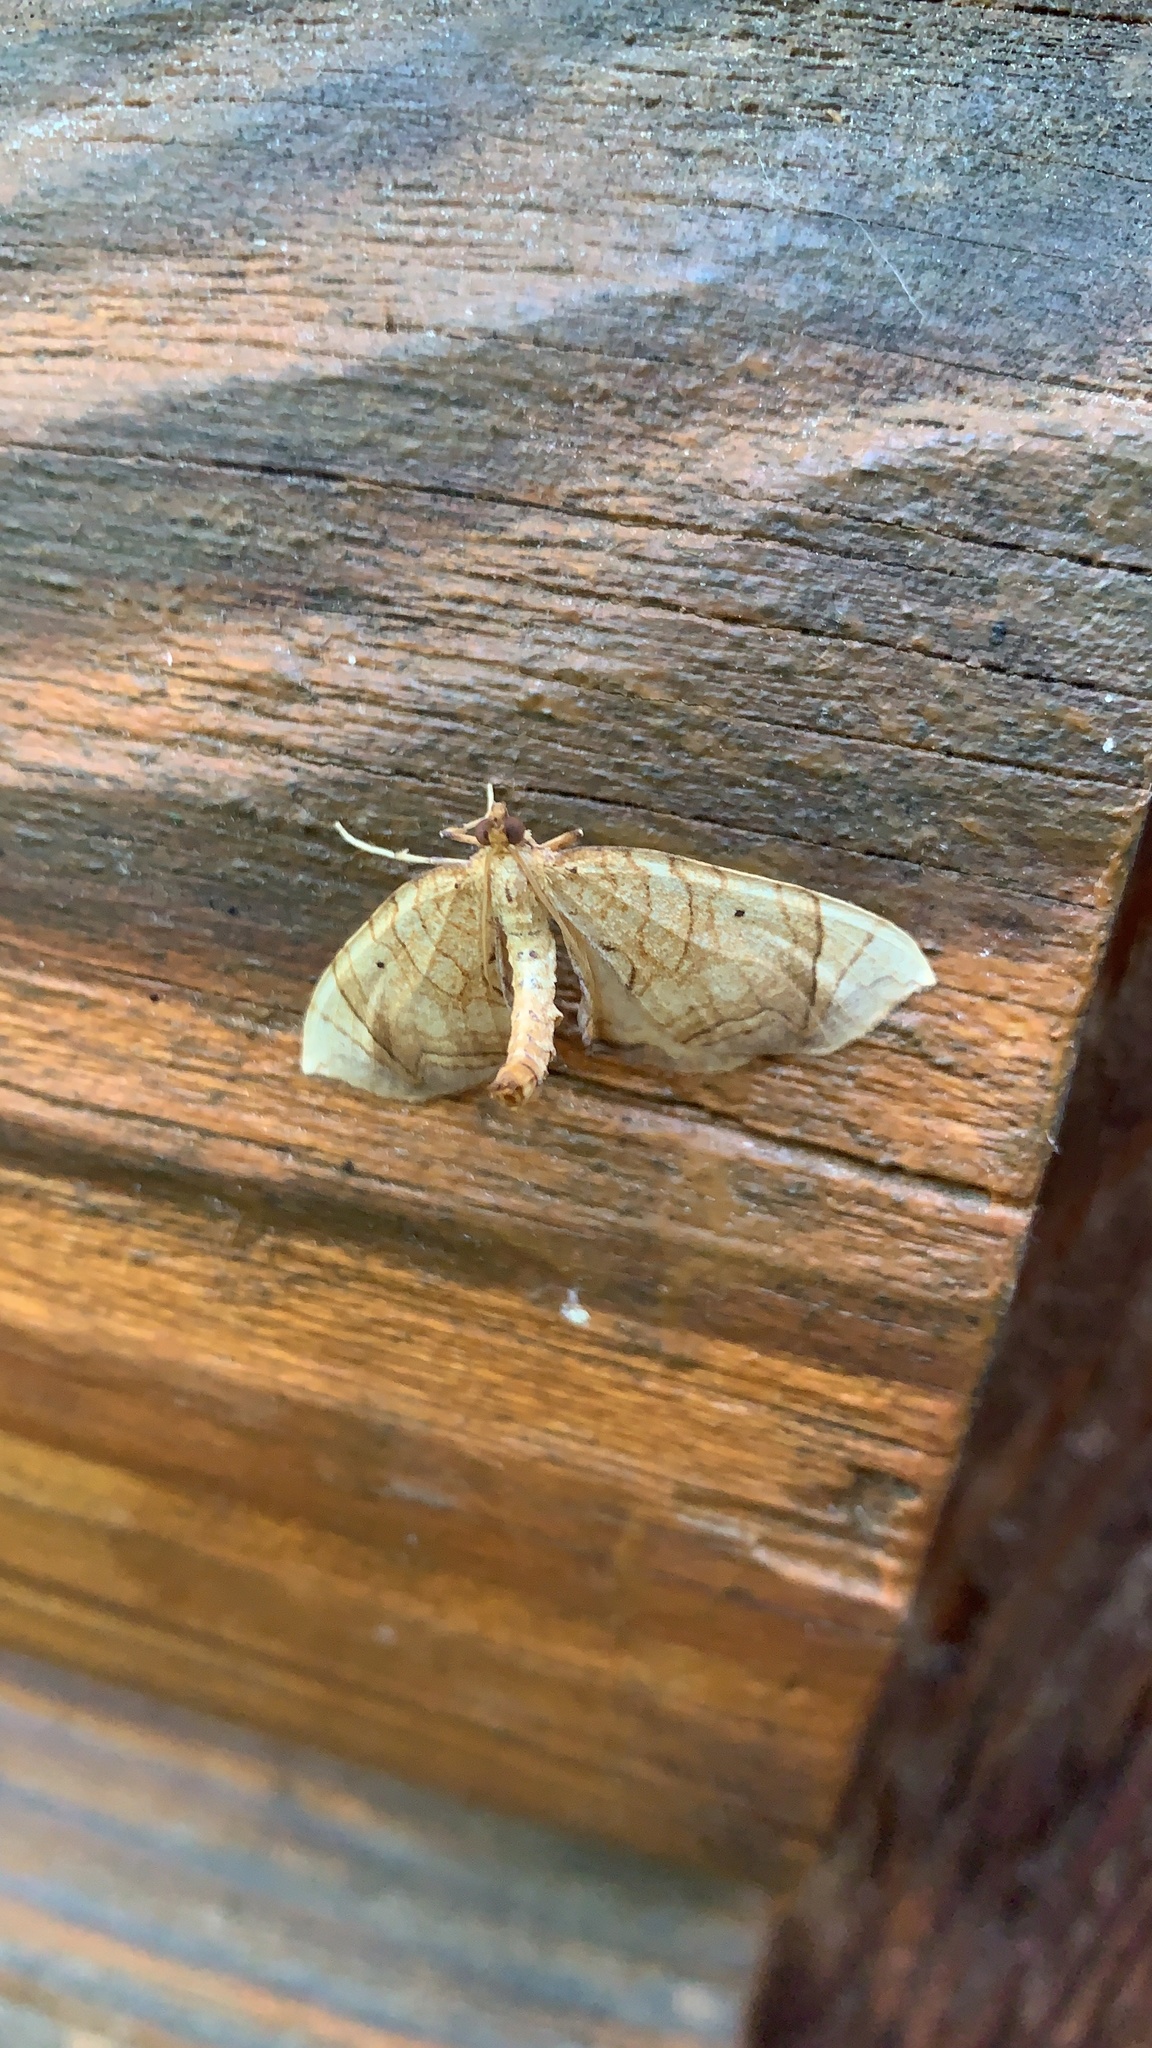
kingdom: Animalia
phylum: Arthropoda
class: Insecta
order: Lepidoptera
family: Geometridae
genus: Eulithis
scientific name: Eulithis gracilineata
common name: Greater grapevine looper moth
